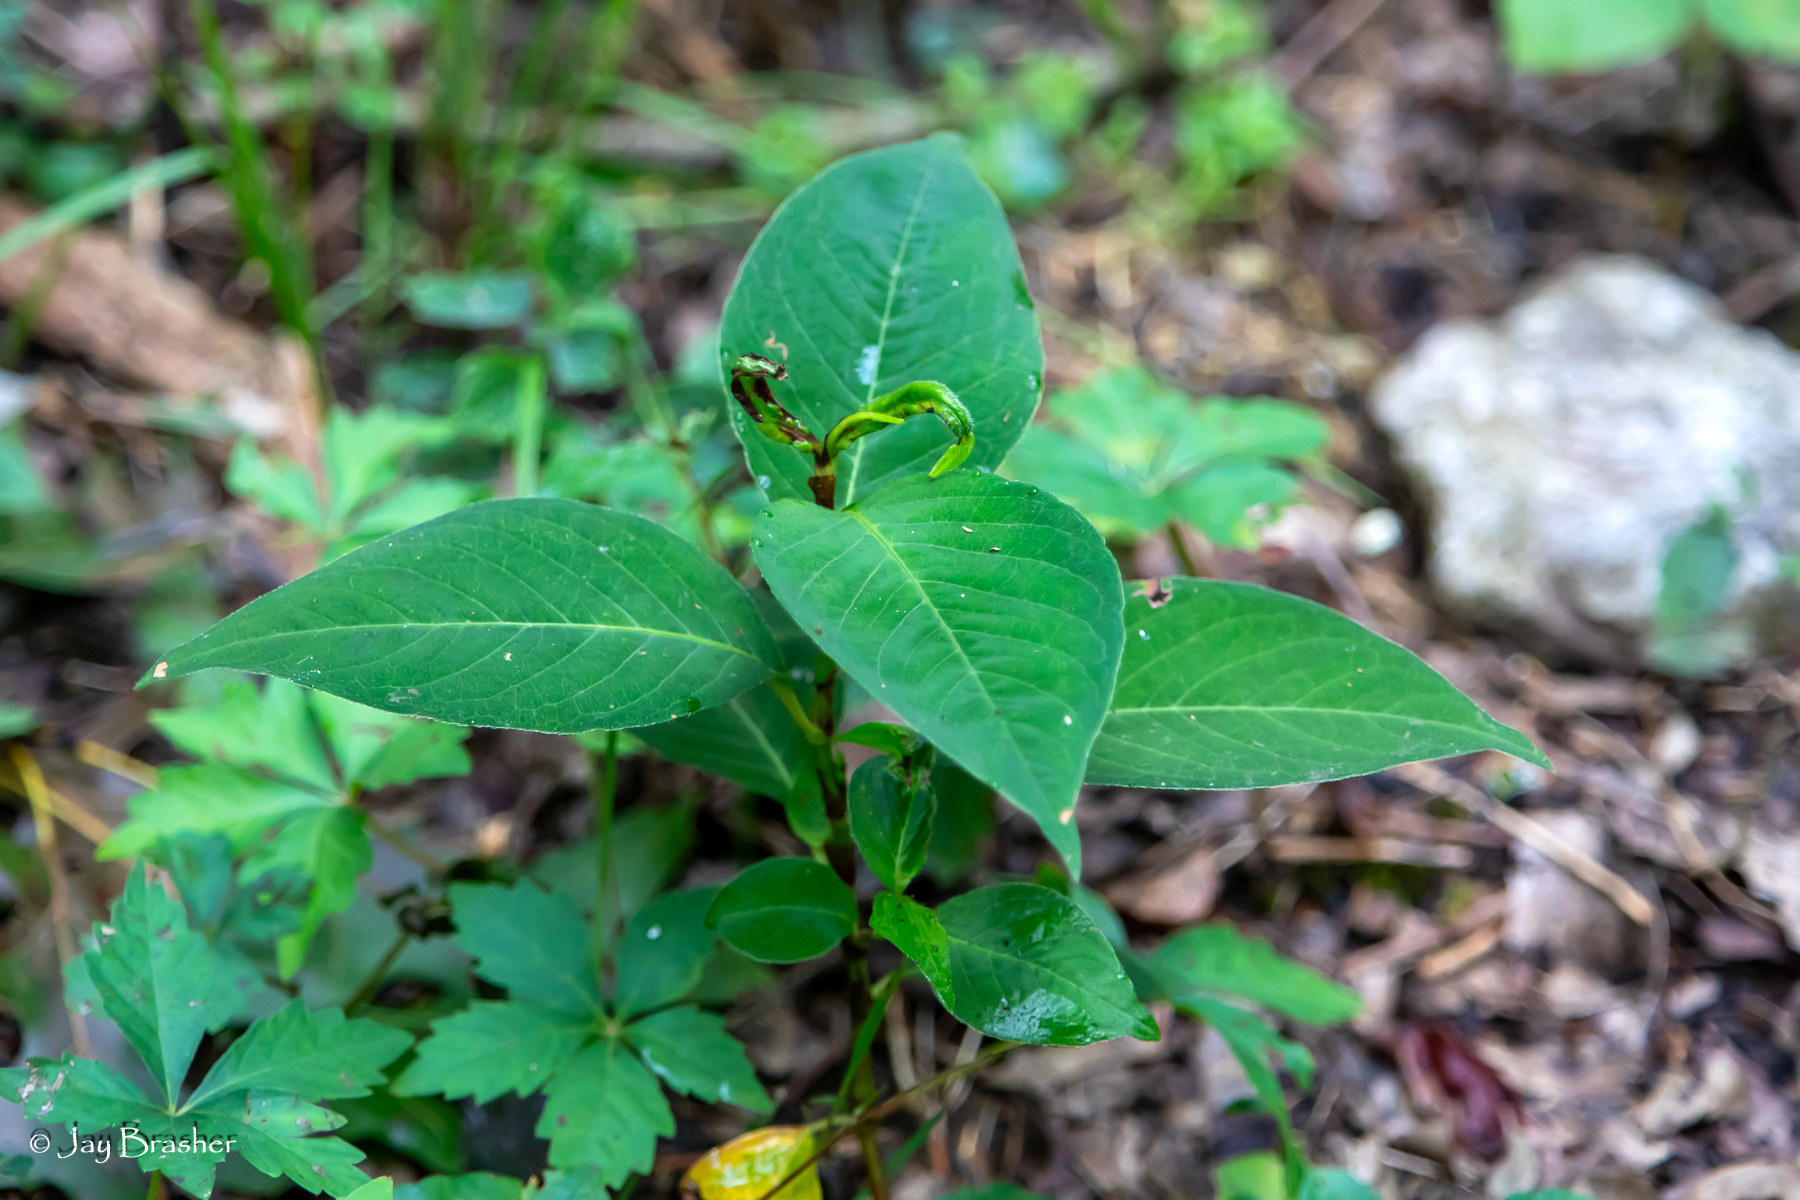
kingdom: Plantae
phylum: Tracheophyta
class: Magnoliopsida
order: Caryophyllales
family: Polygonaceae
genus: Persicaria
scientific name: Persicaria virginiana
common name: Jumpseed
